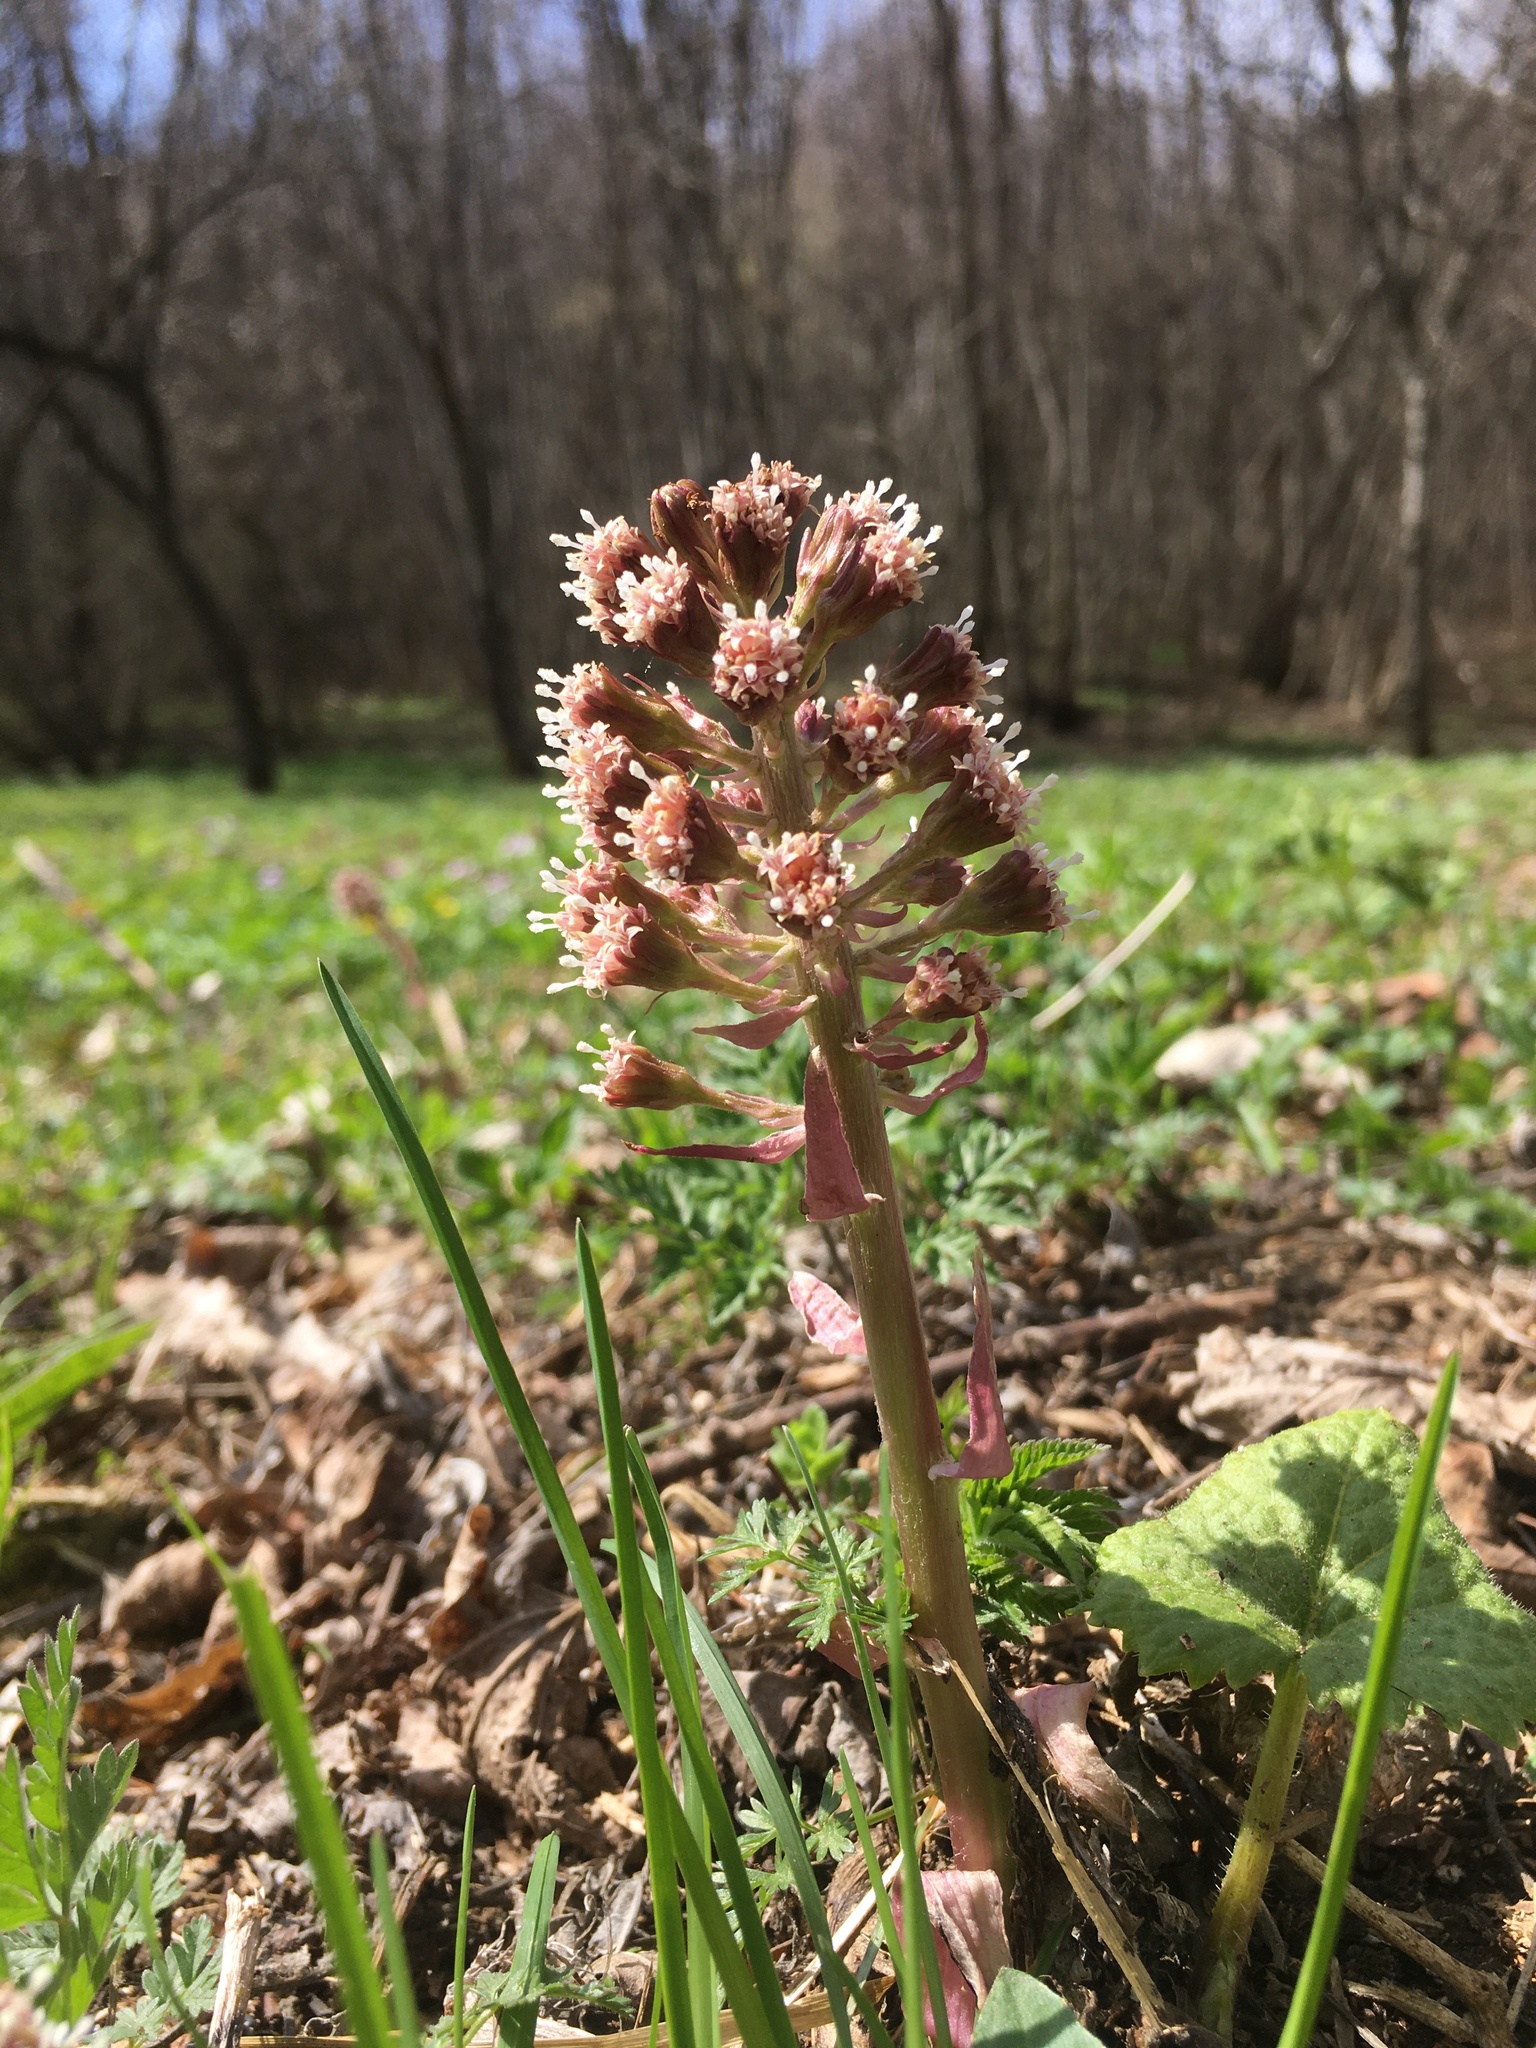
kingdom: Plantae
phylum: Tracheophyta
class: Magnoliopsida
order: Asterales
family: Asteraceae
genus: Petasites
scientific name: Petasites hybridus
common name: Butterbur
